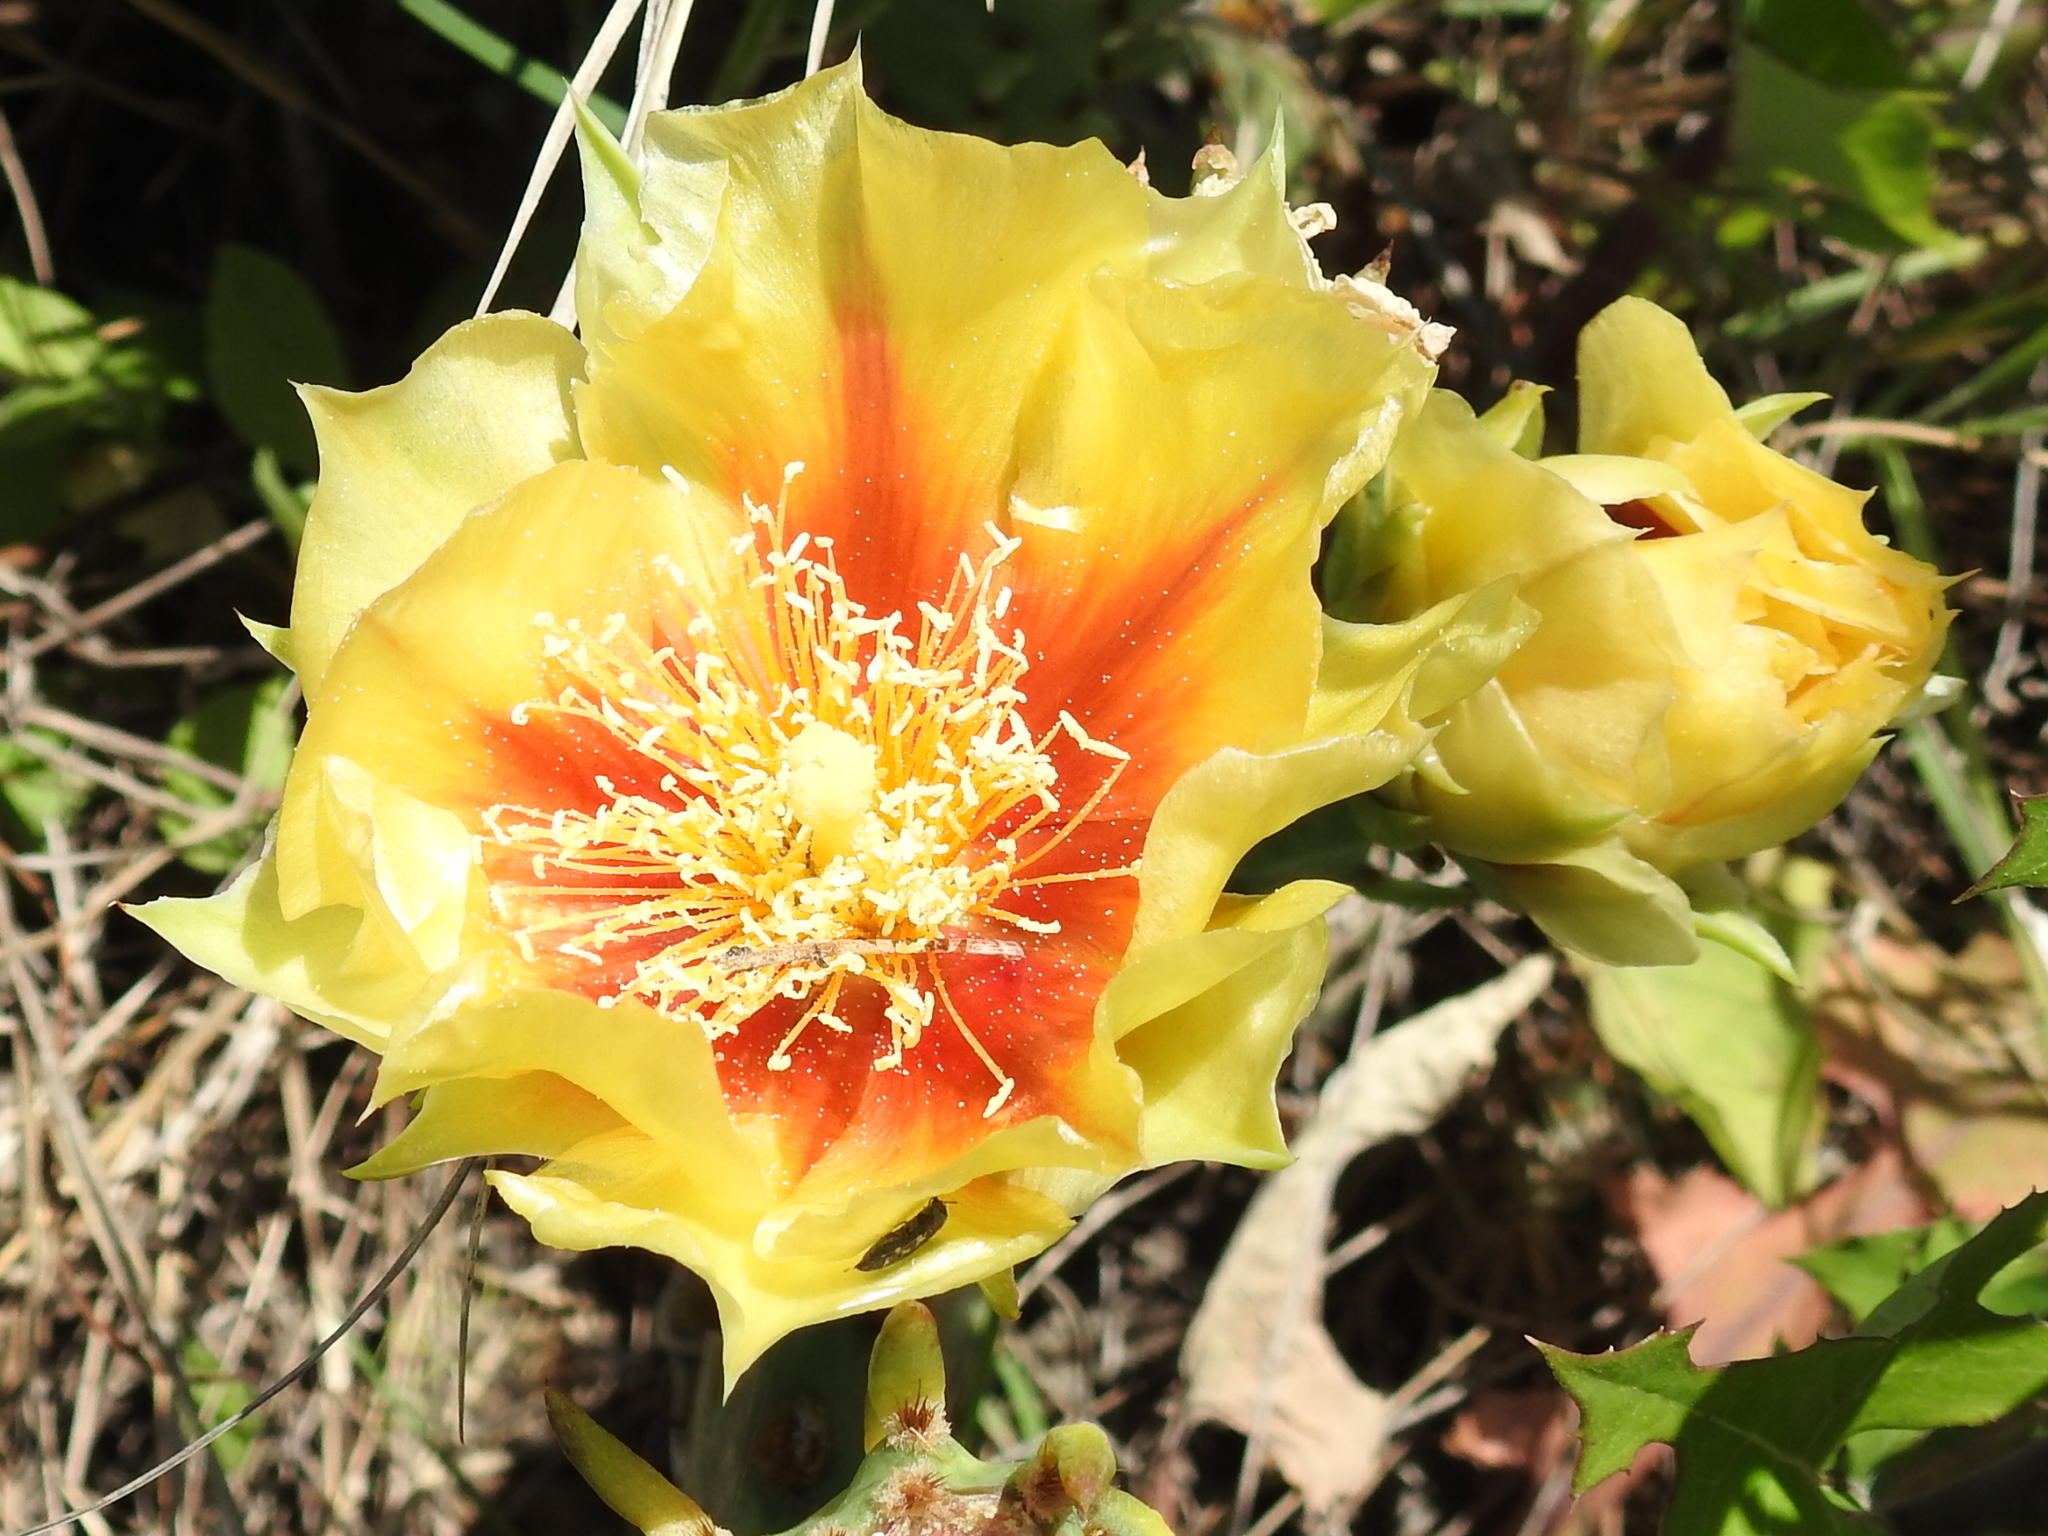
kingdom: Plantae
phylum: Tracheophyta
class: Magnoliopsida
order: Caryophyllales
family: Cactaceae
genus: Opuntia
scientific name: Opuntia macrorhiza
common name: Grassland pricklypear
